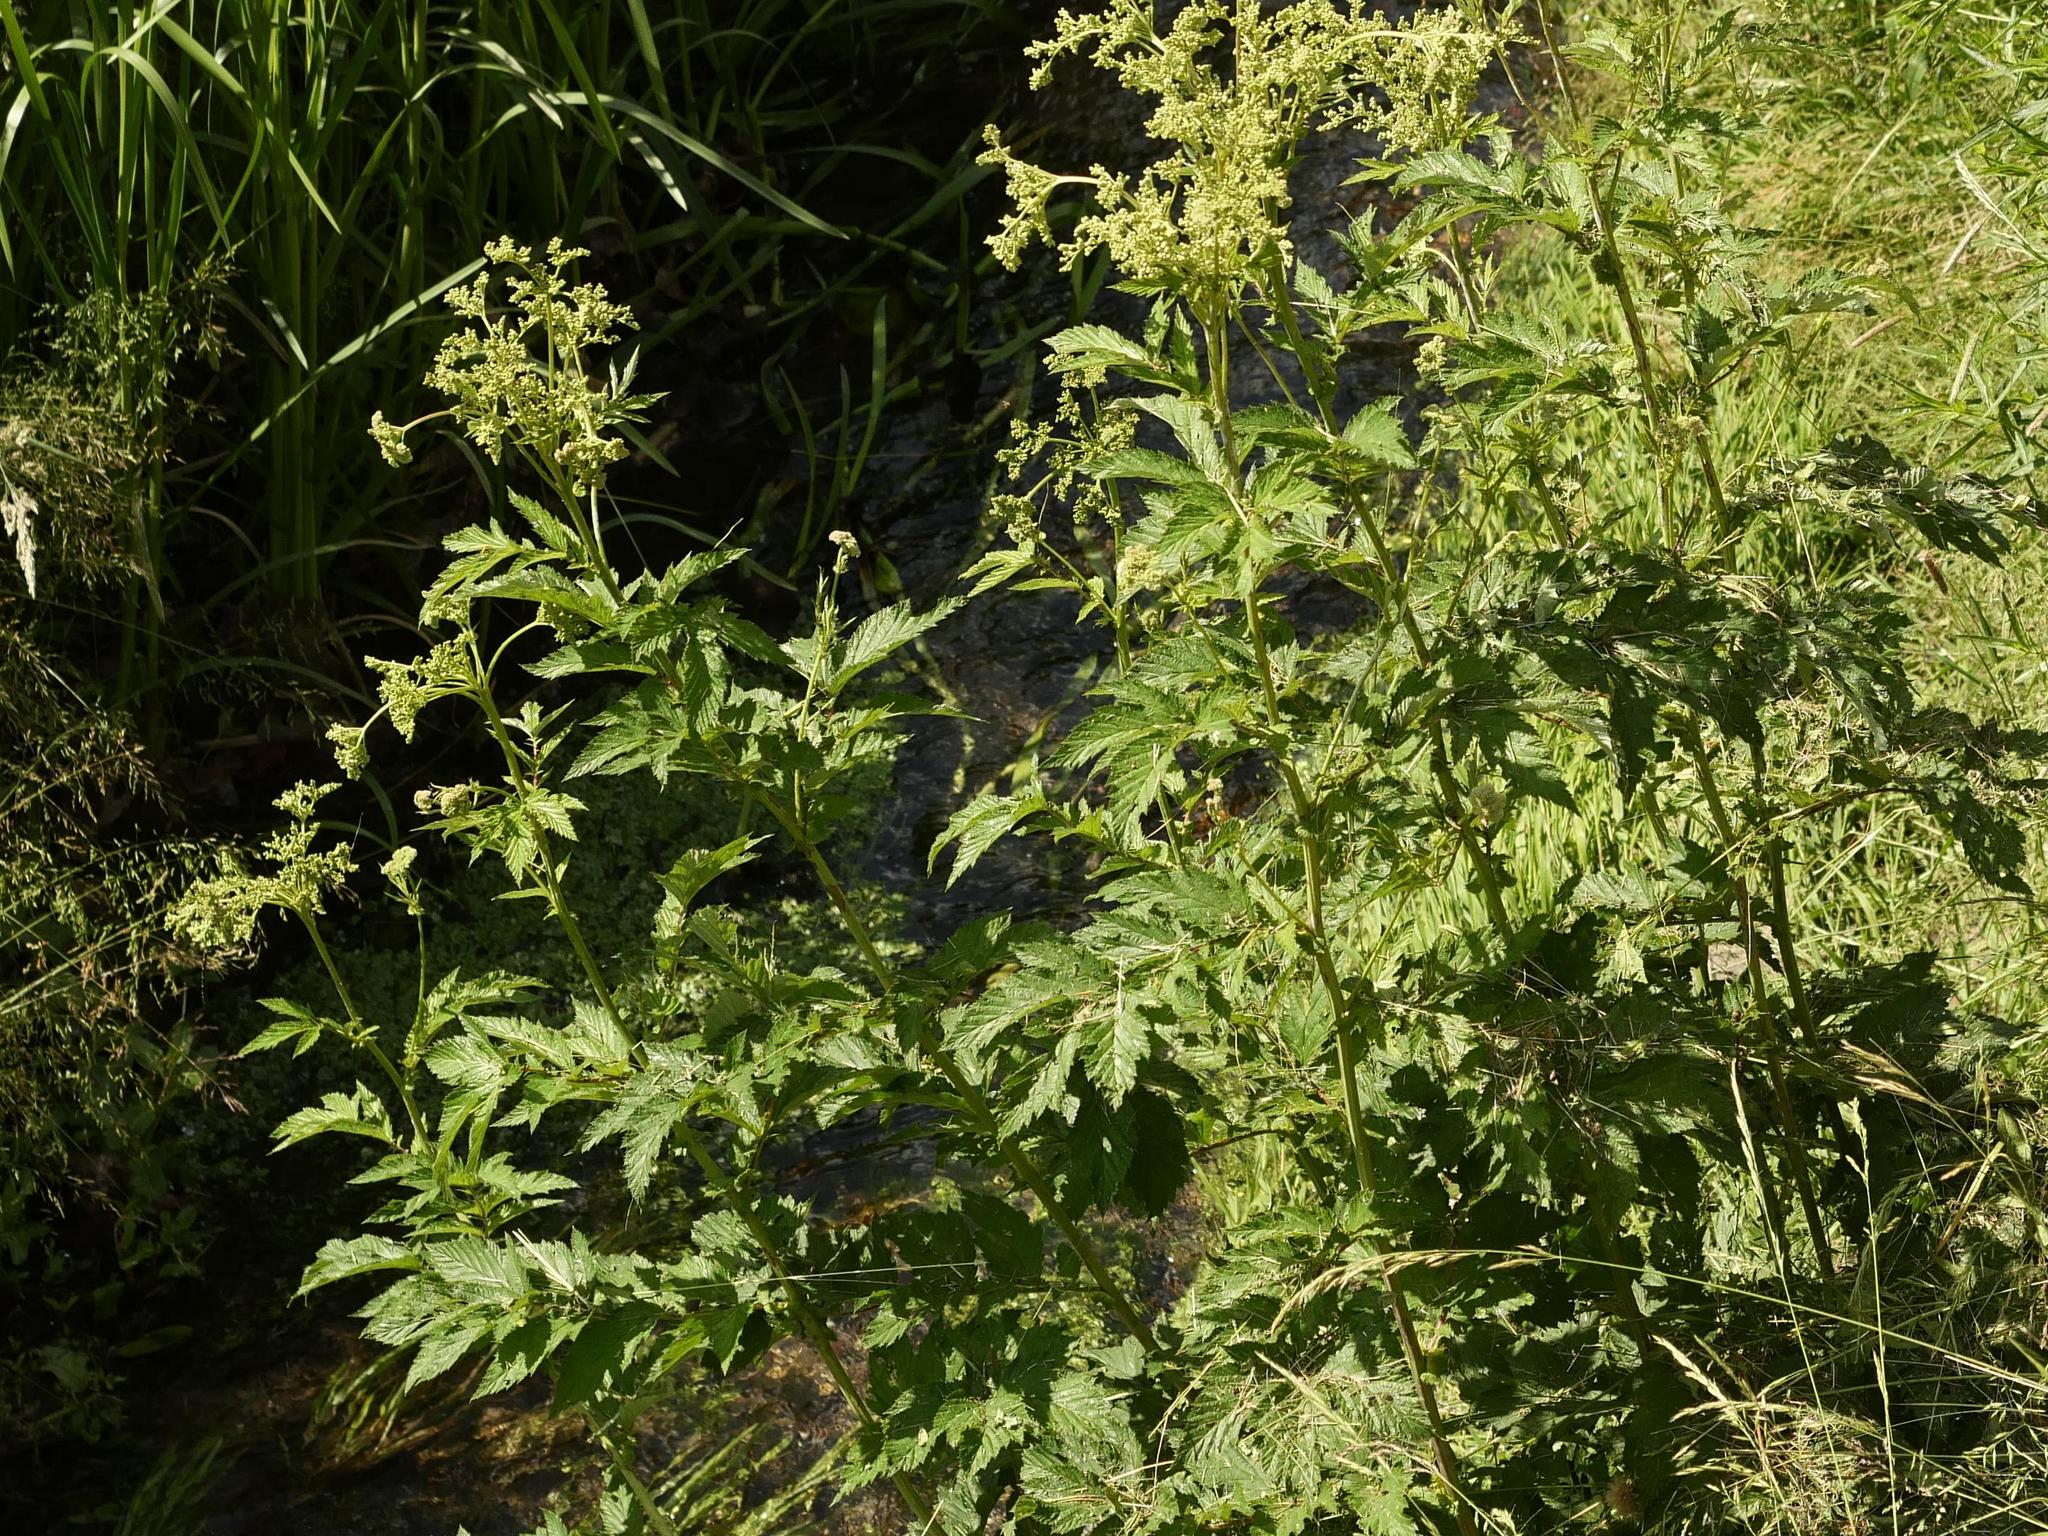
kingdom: Plantae
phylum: Tracheophyta
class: Magnoliopsida
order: Rosales
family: Rosaceae
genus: Filipendula
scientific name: Filipendula ulmaria
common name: Meadowsweet
